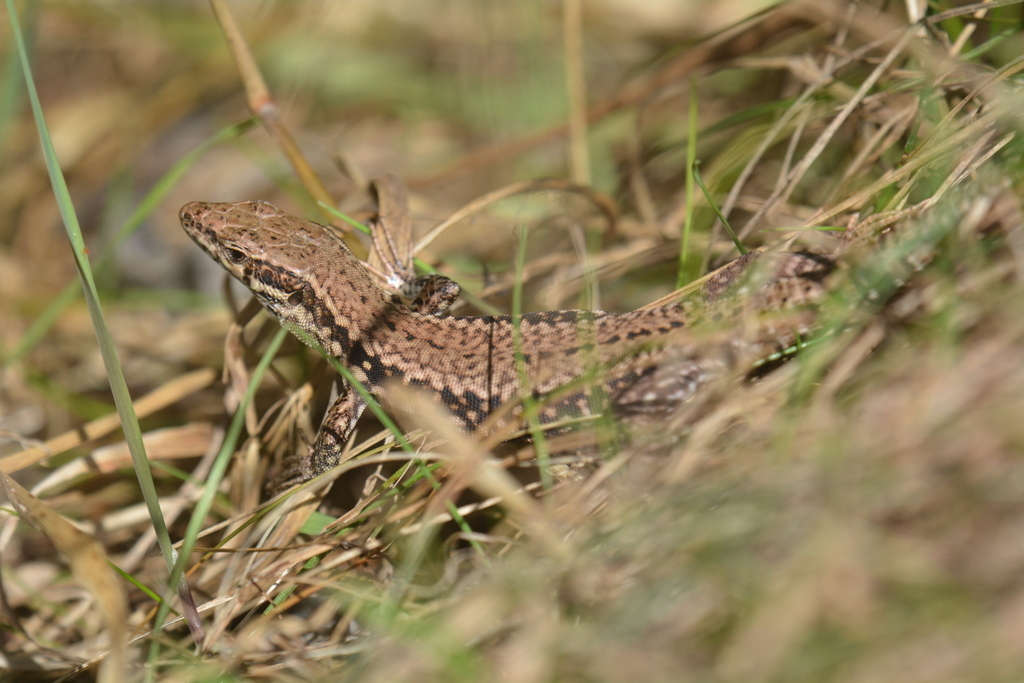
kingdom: Animalia
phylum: Chordata
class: Squamata
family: Lacertidae
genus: Podarcis
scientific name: Podarcis muralis
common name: Common wall lizard
